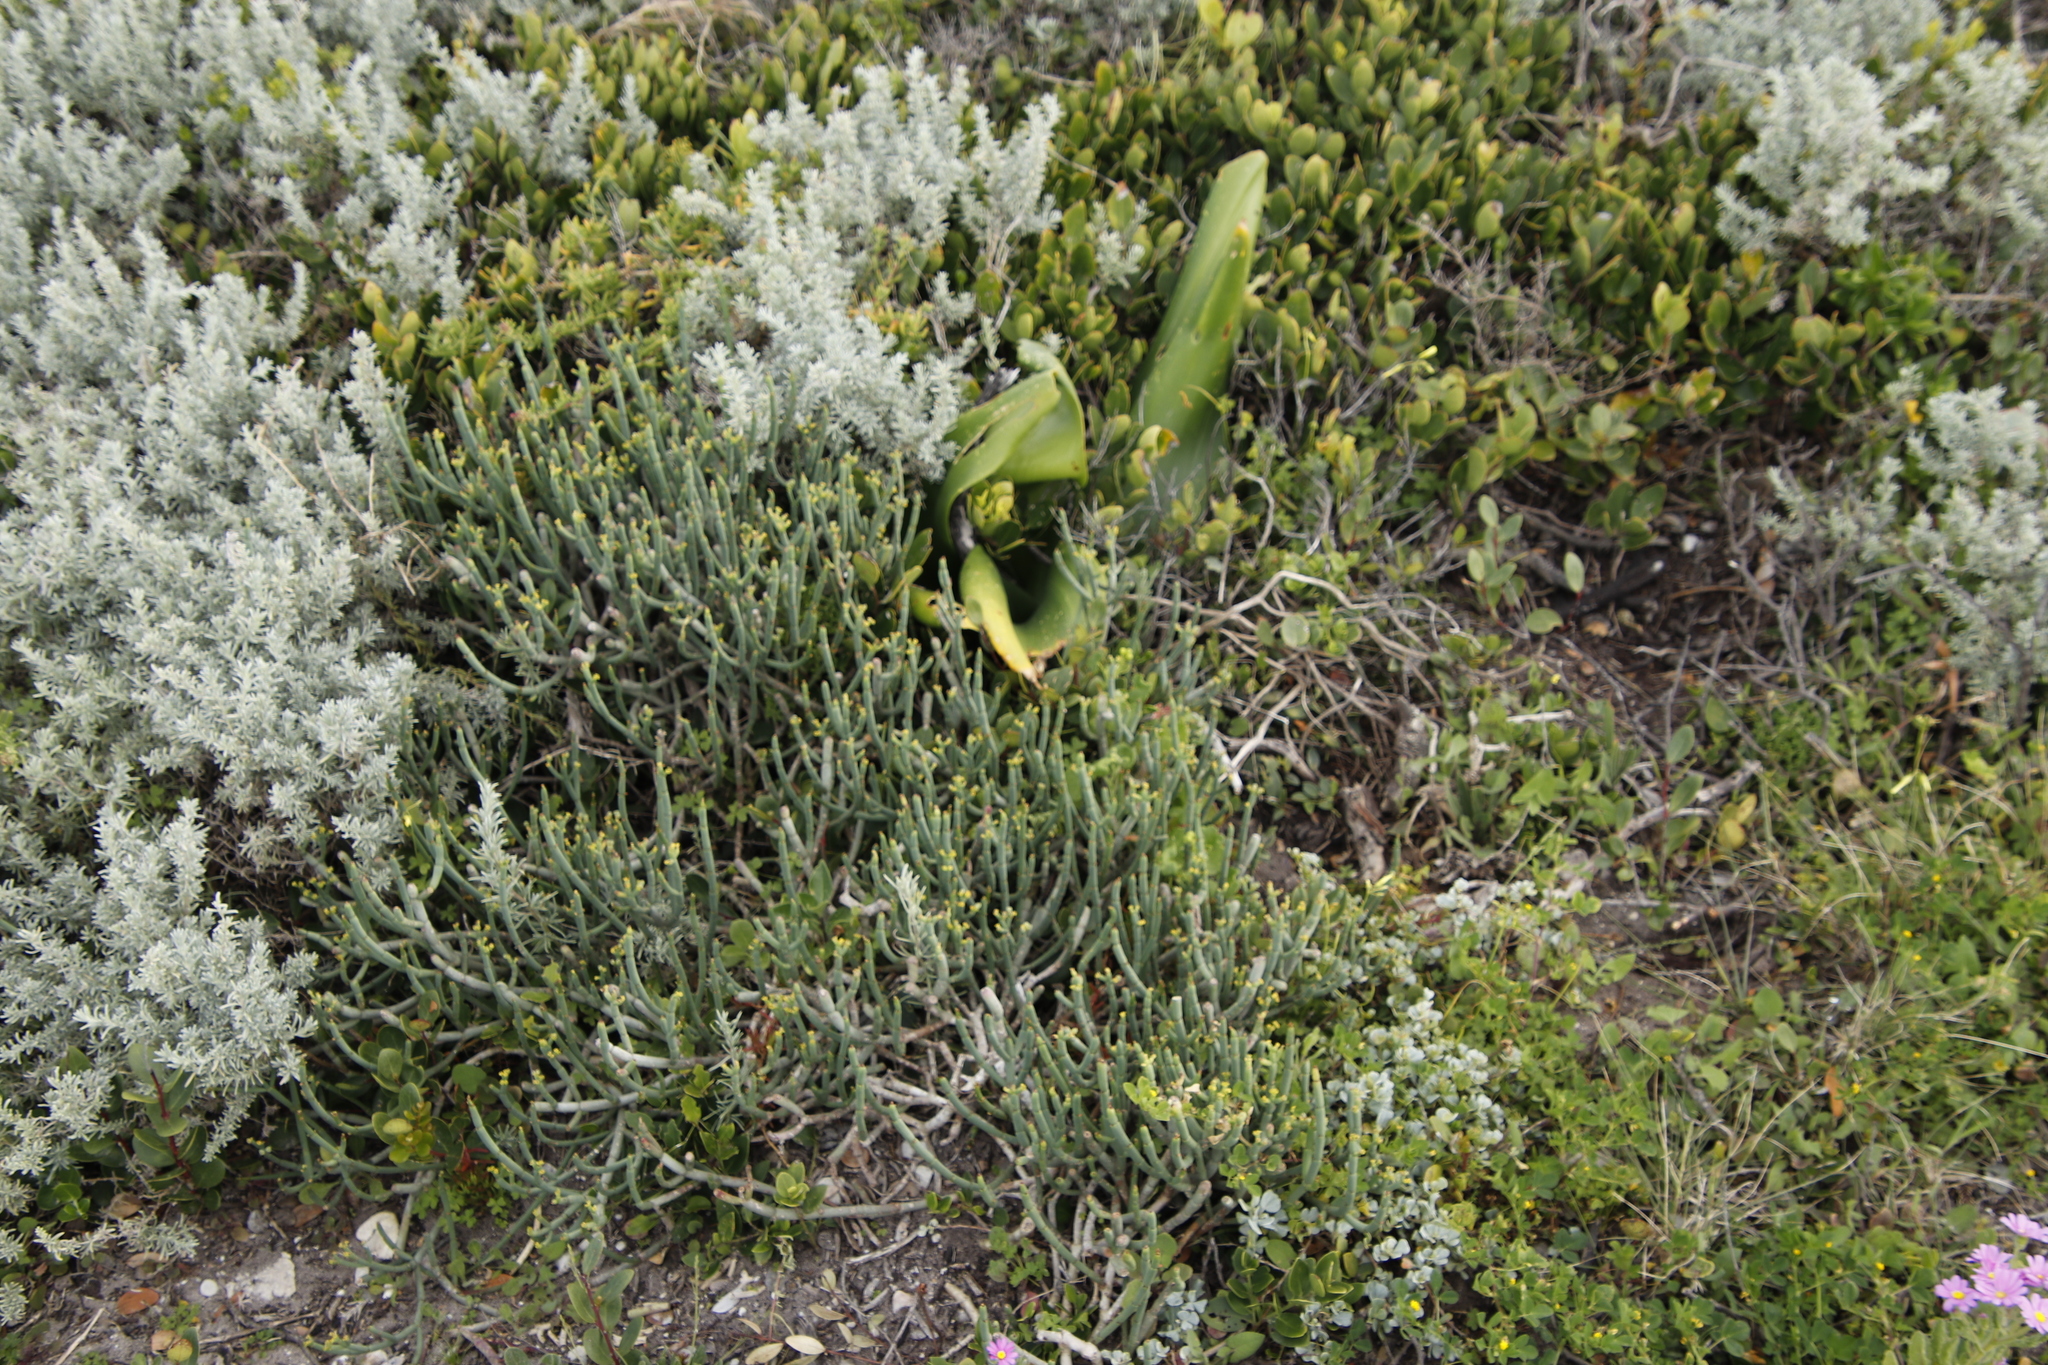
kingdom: Plantae
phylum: Tracheophyta
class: Magnoliopsida
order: Malpighiales
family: Euphorbiaceae
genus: Euphorbia
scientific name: Euphorbia burmanni
